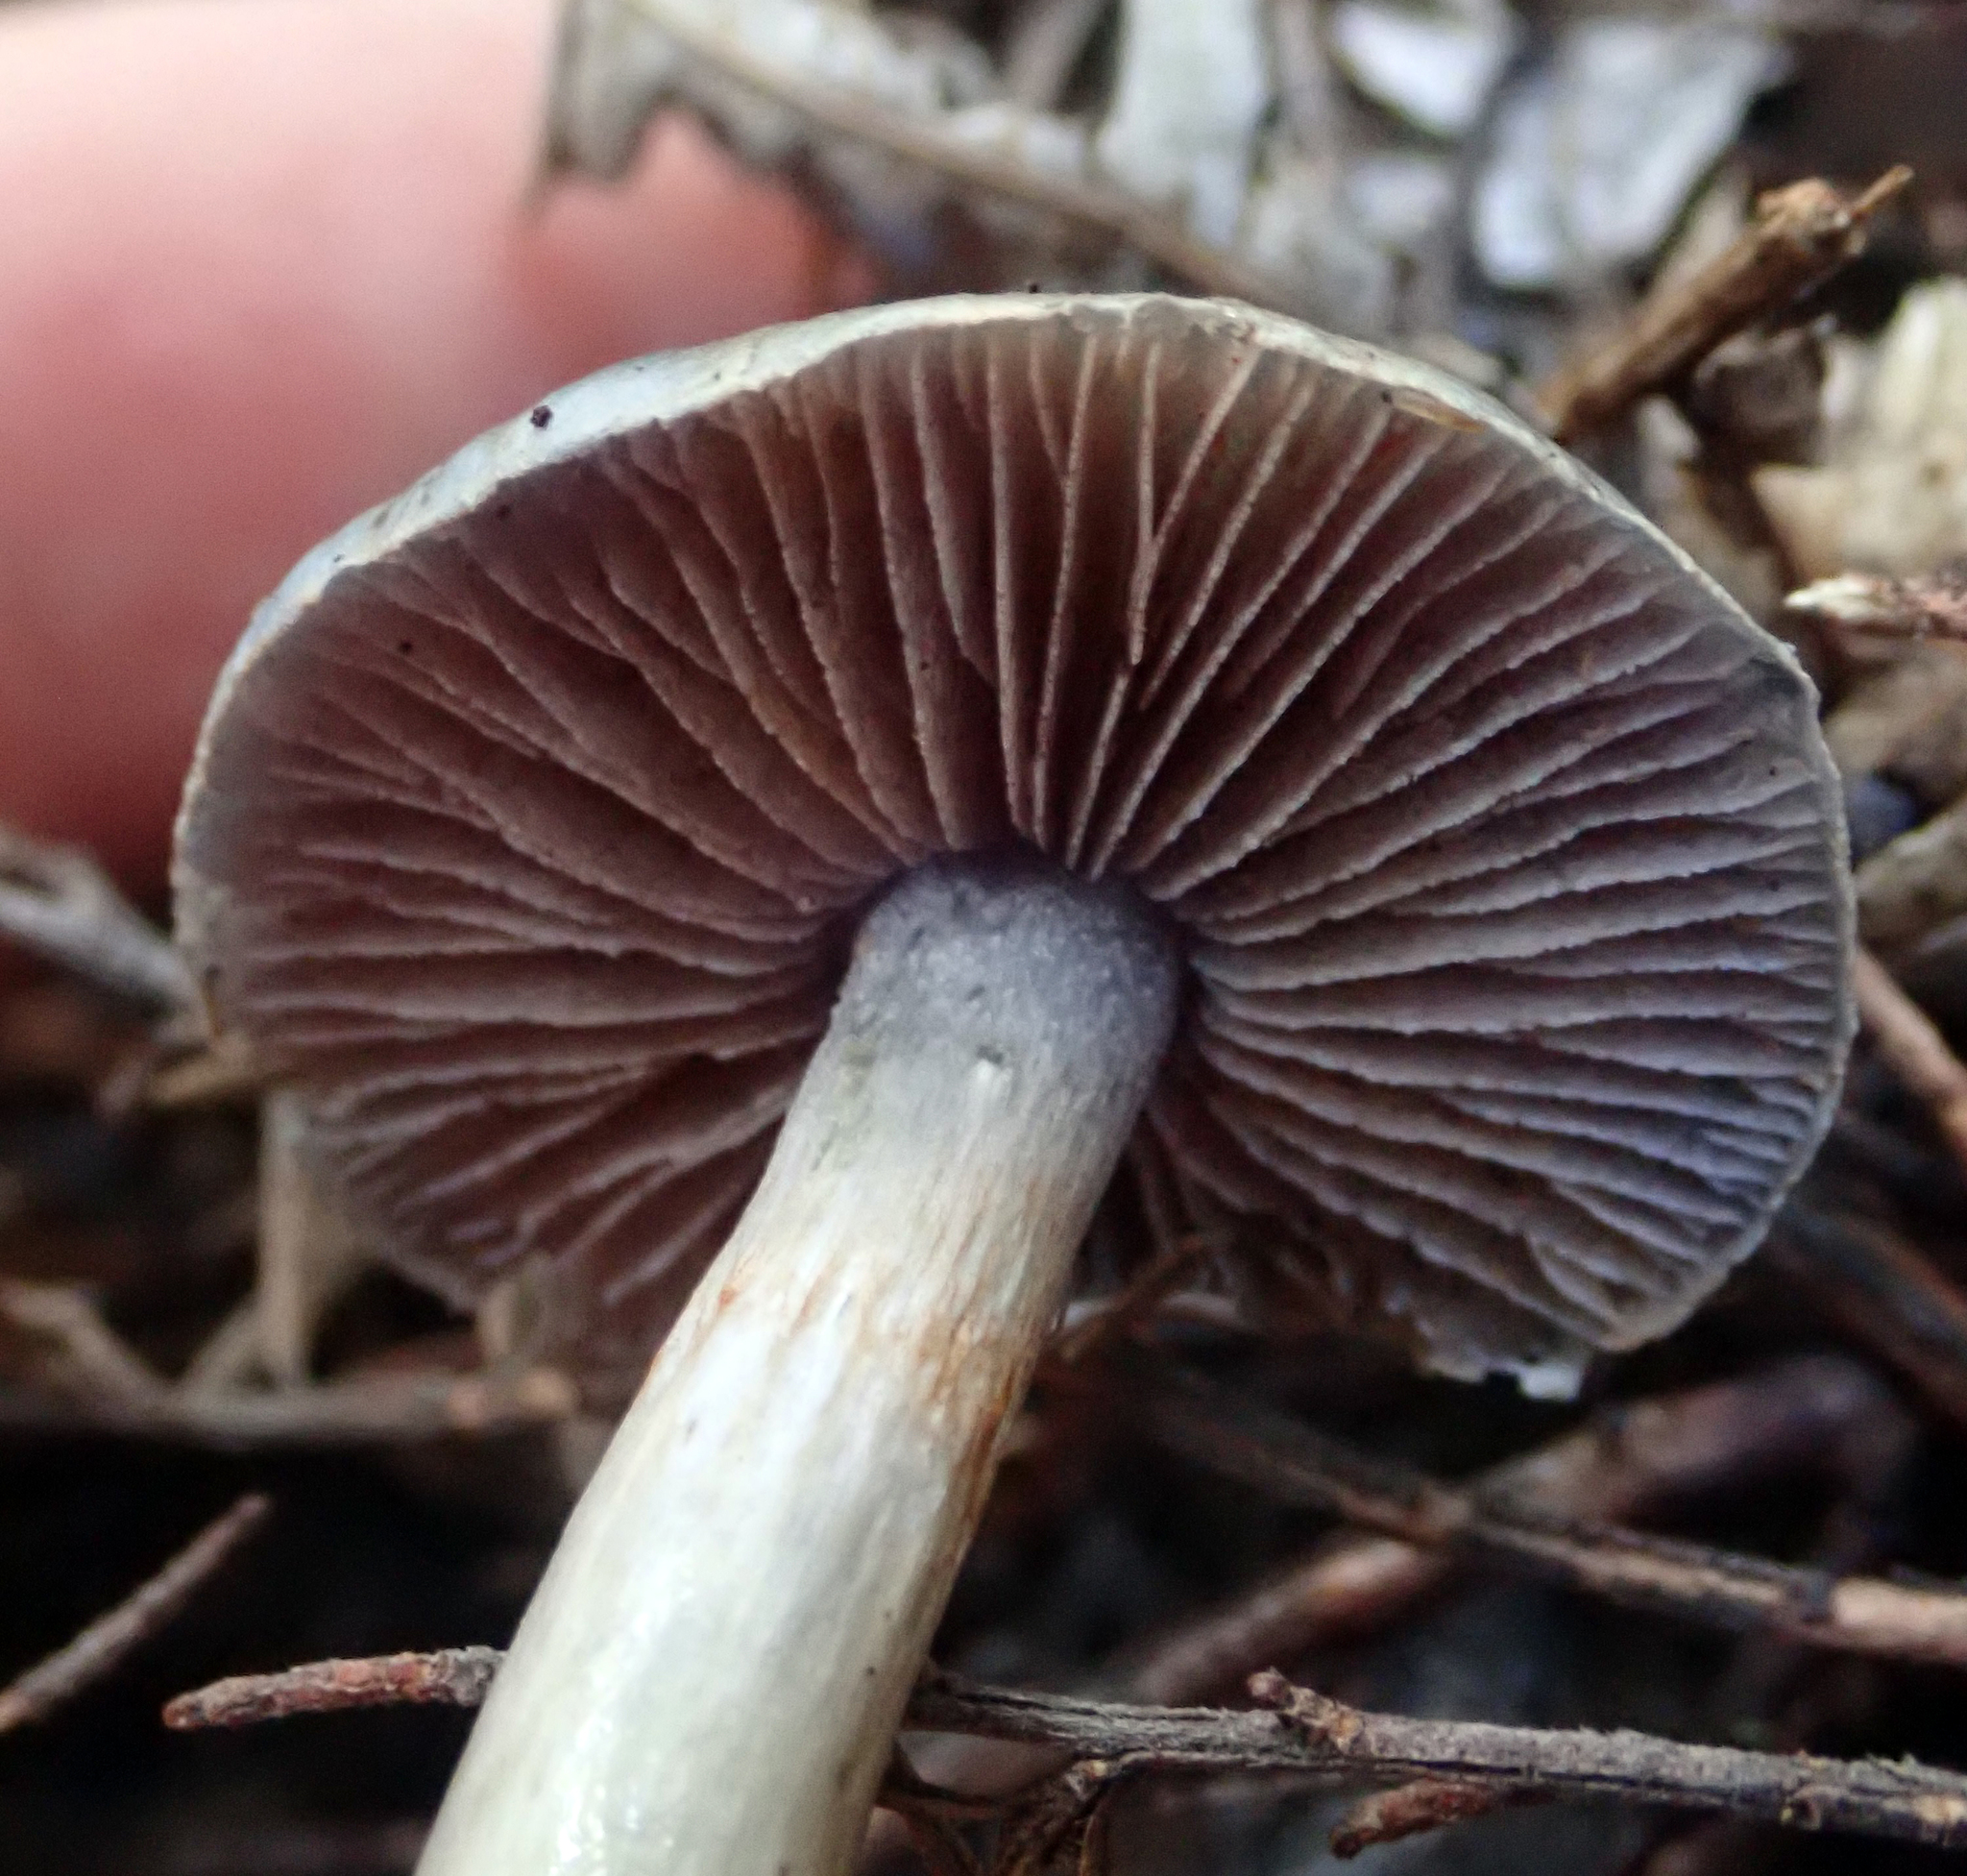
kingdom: Fungi
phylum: Basidiomycota
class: Agaricomycetes
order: Agaricales
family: Cortinariaceae
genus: Cortinarius
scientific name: Cortinarius rotundisporus
